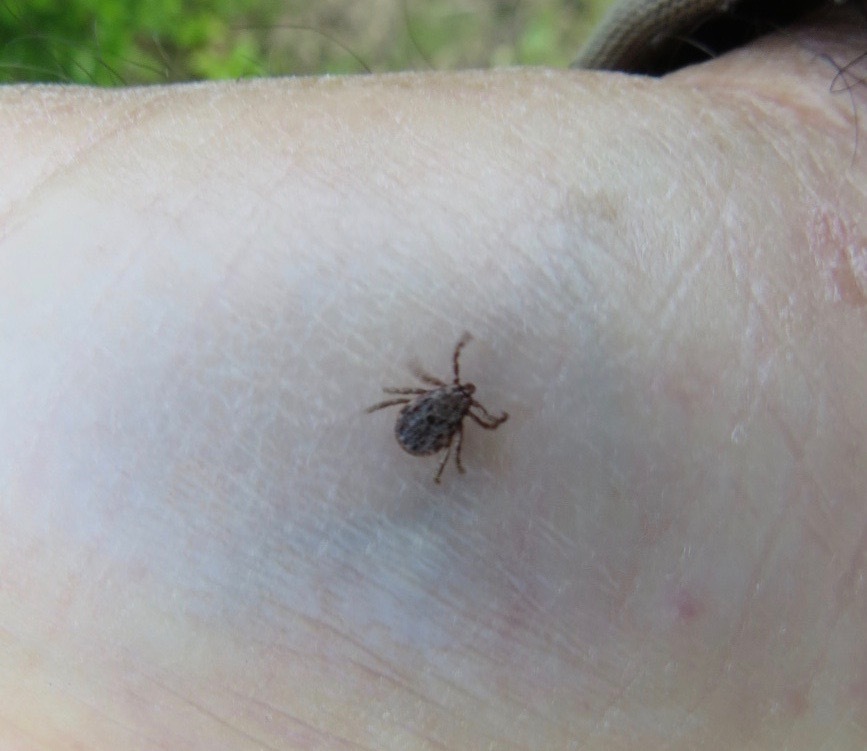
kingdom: Animalia
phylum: Arthropoda
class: Arachnida
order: Ixodida
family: Ixodidae
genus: Dermacentor
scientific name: Dermacentor occidentalis
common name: Net tick
